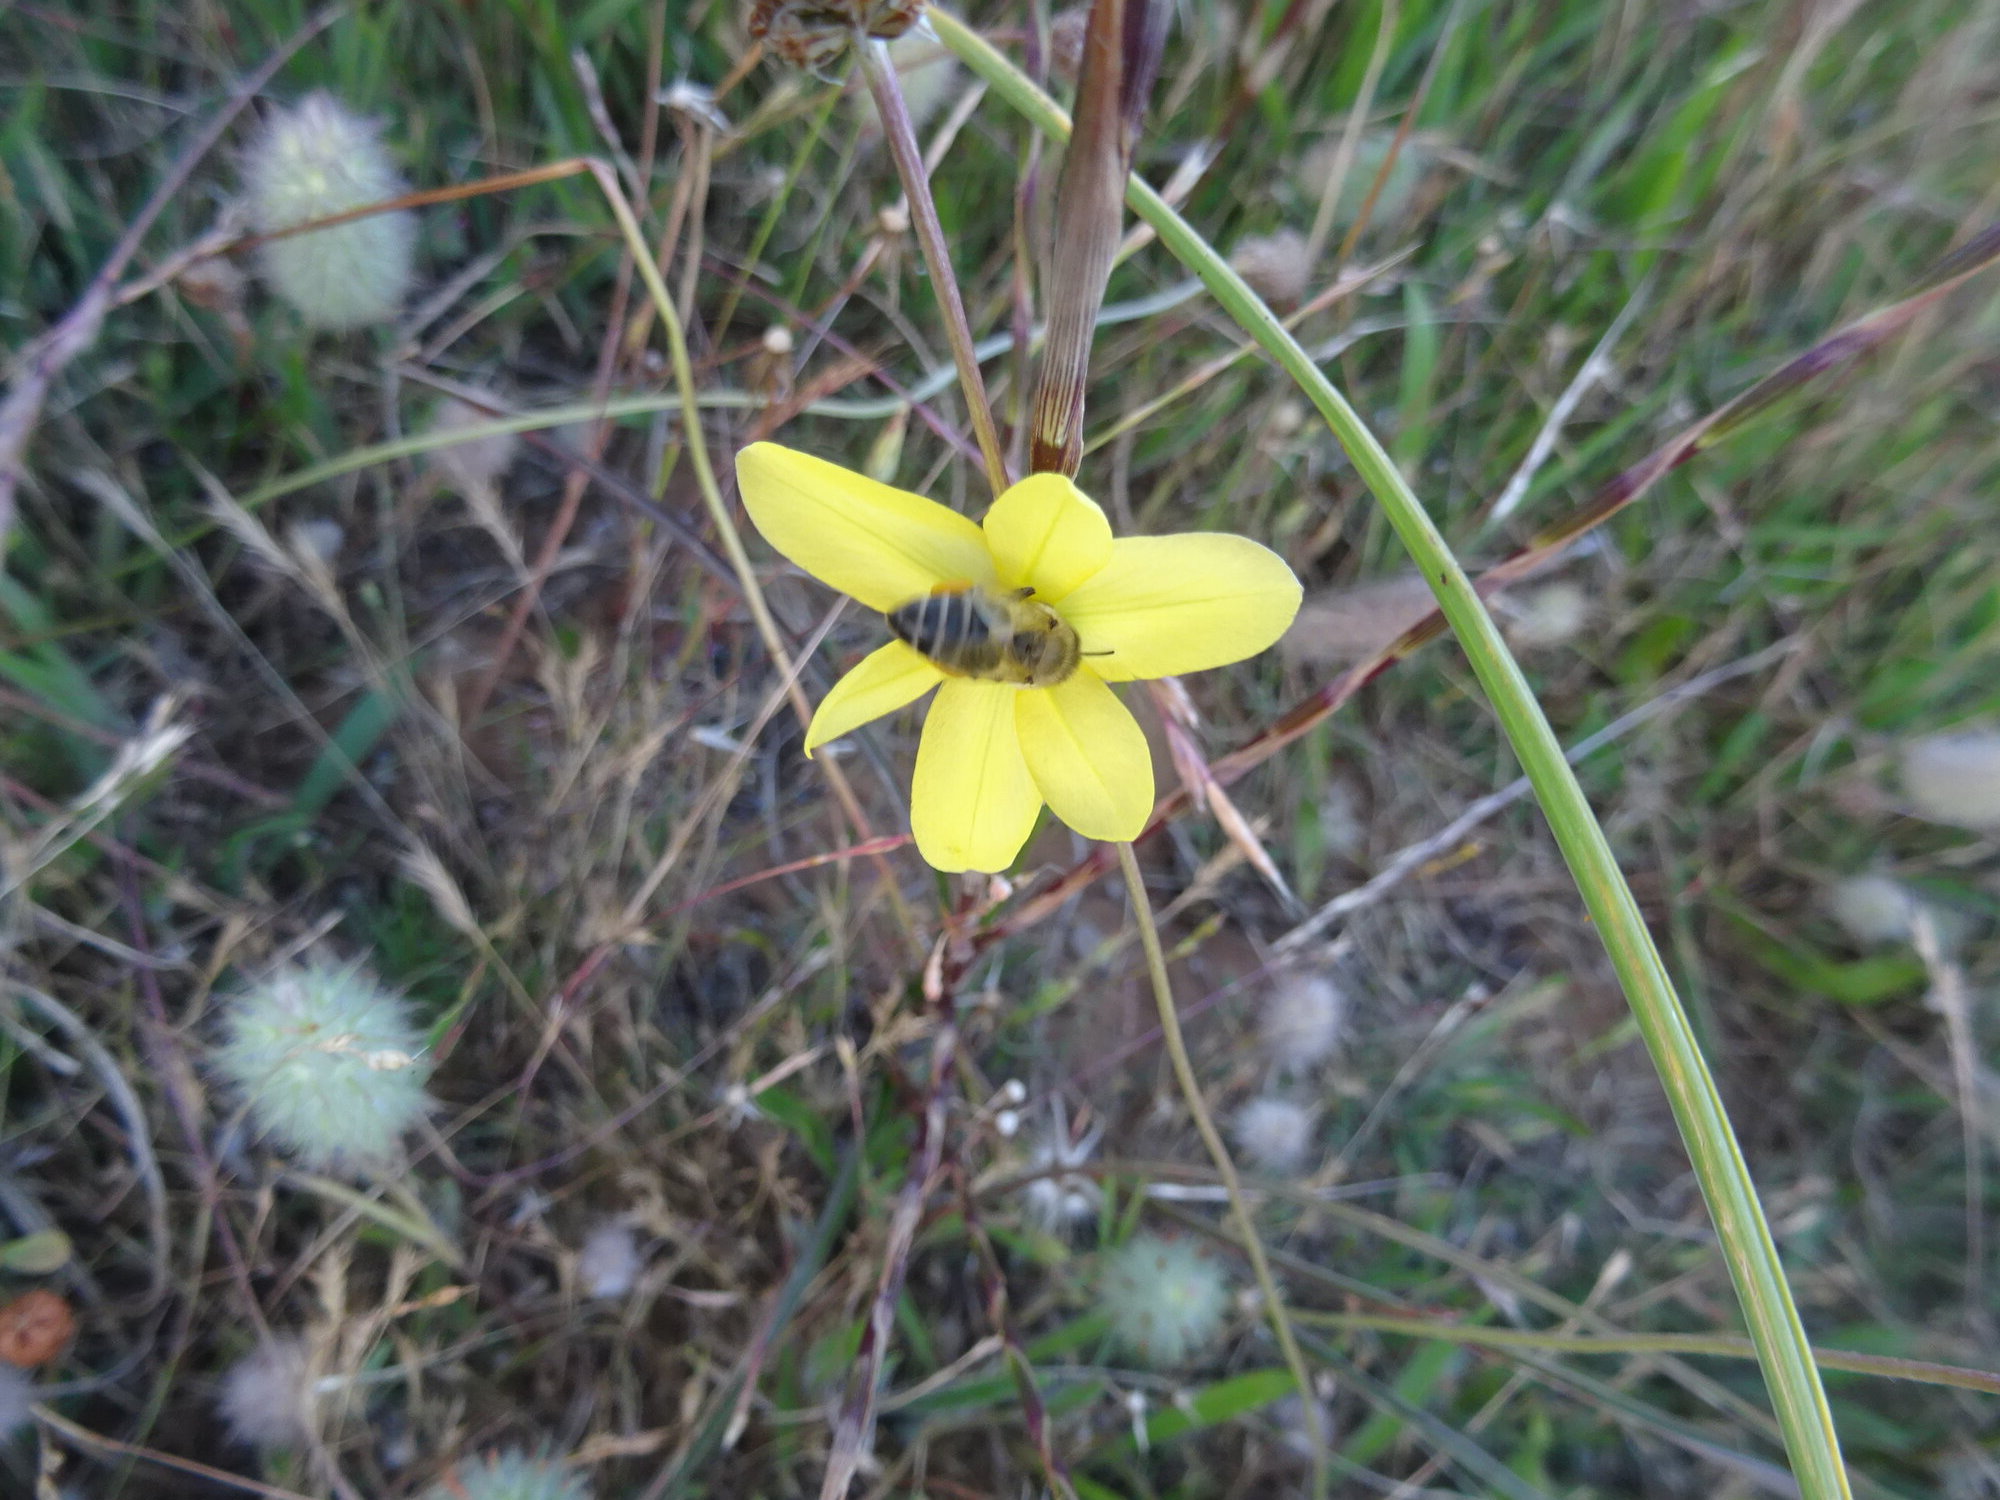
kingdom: Animalia
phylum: Arthropoda
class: Insecta
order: Hymenoptera
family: Apidae
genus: Apis
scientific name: Apis mellifera
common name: Honey bee
